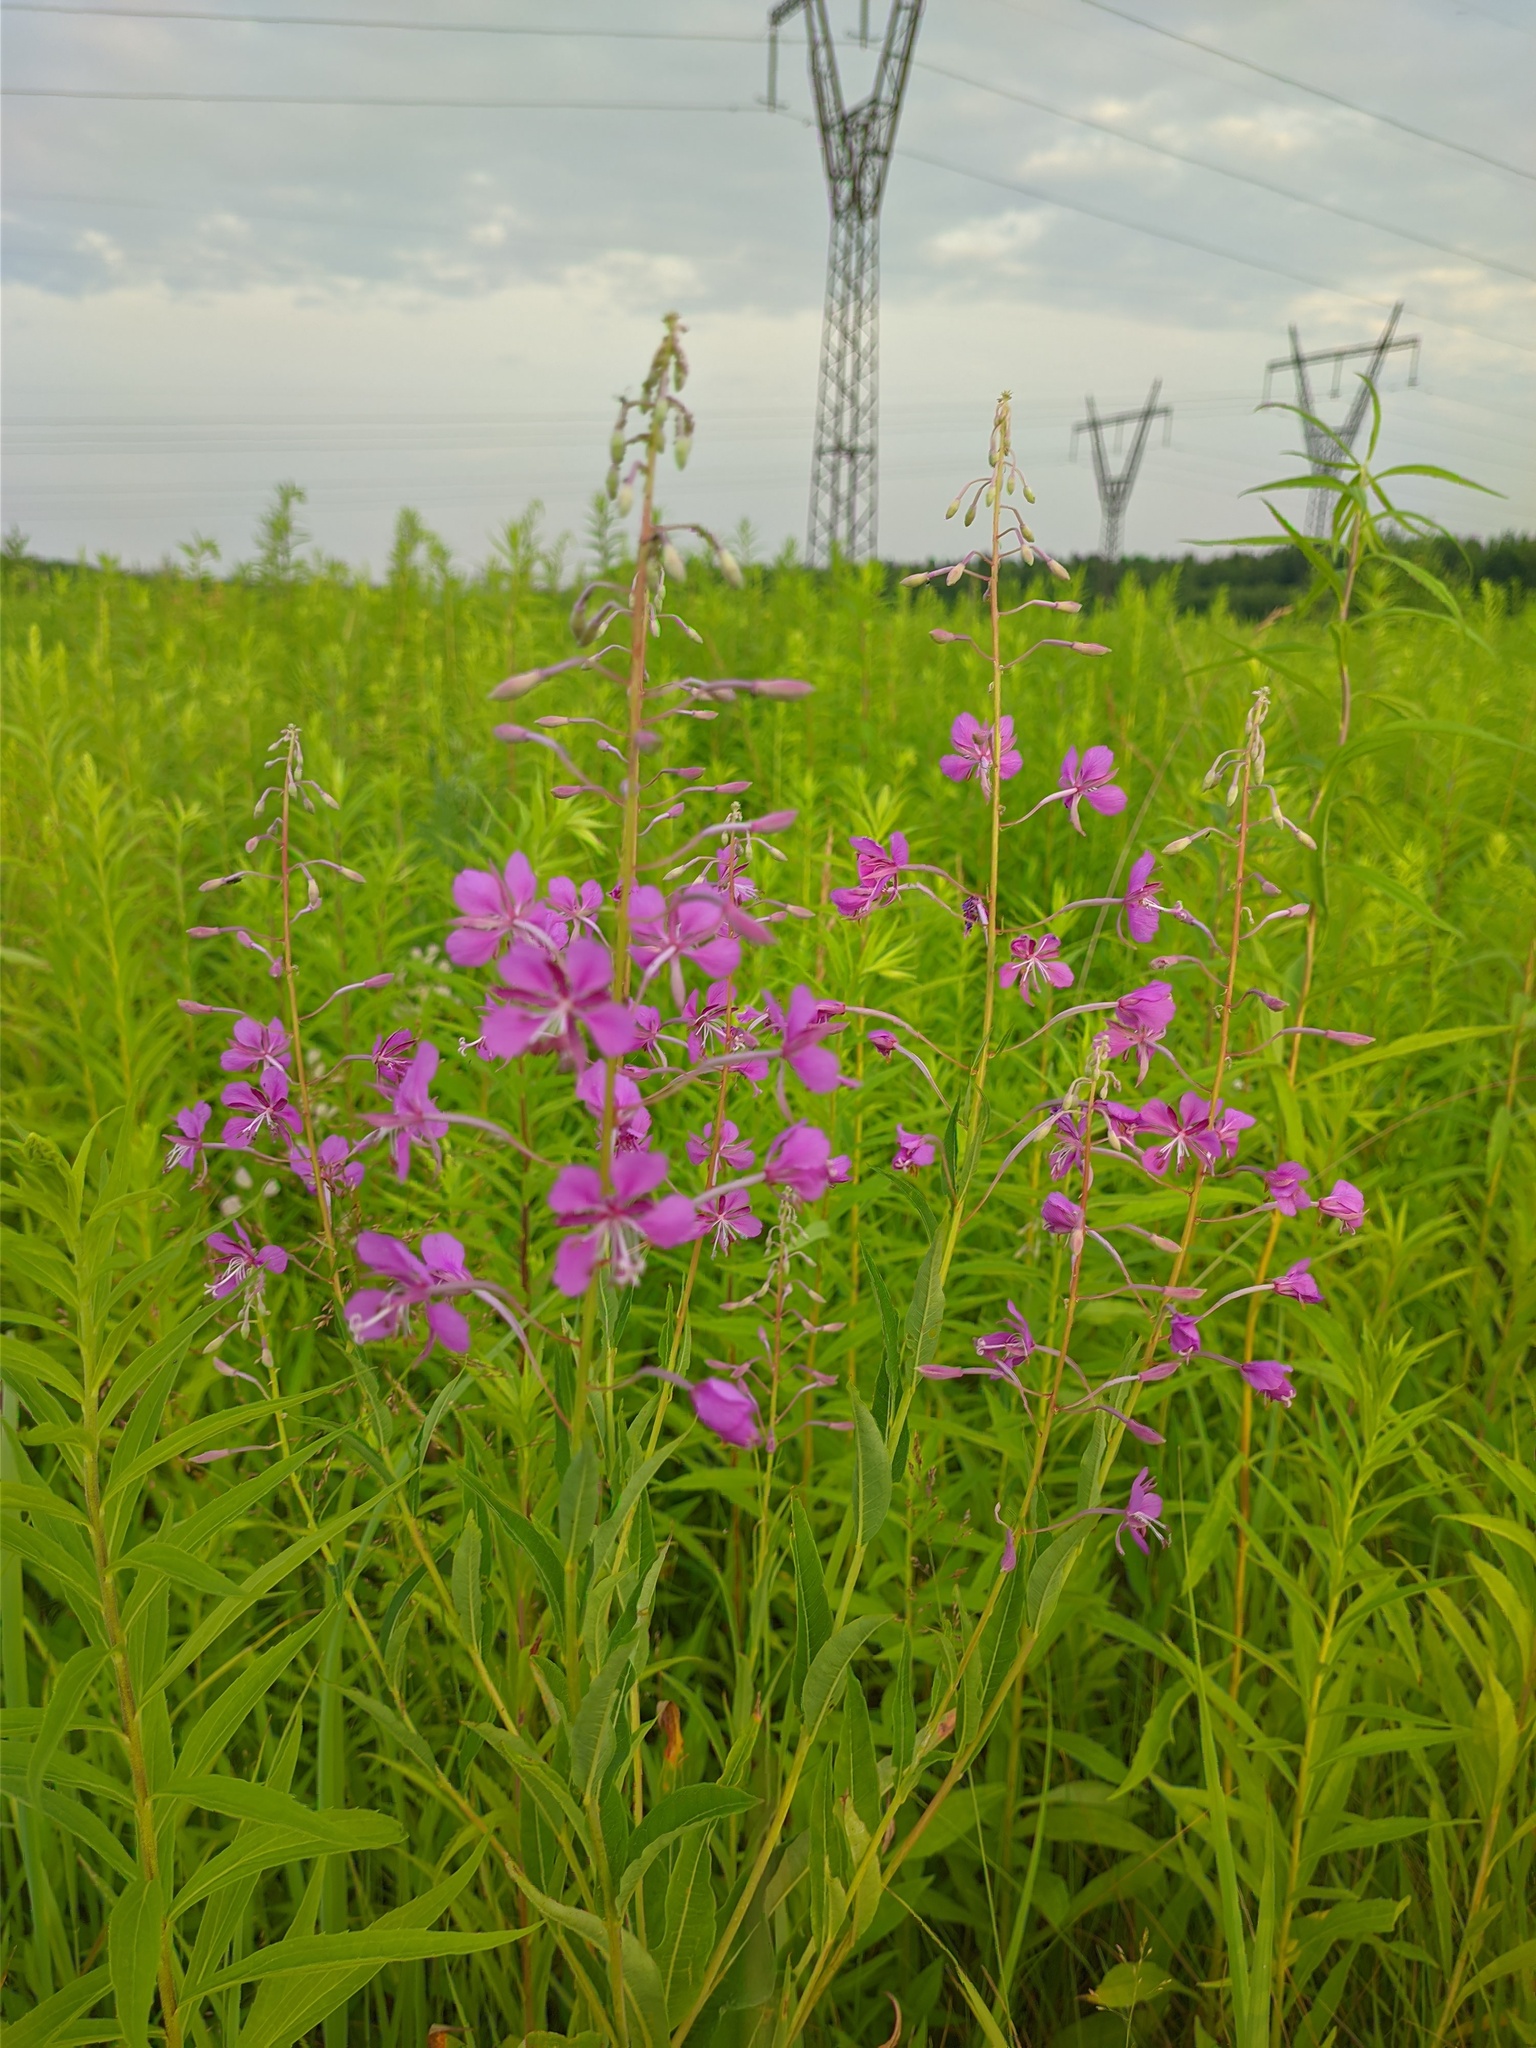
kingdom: Plantae
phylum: Tracheophyta
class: Magnoliopsida
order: Myrtales
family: Onagraceae
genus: Chamaenerion
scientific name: Chamaenerion angustifolium
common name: Fireweed
